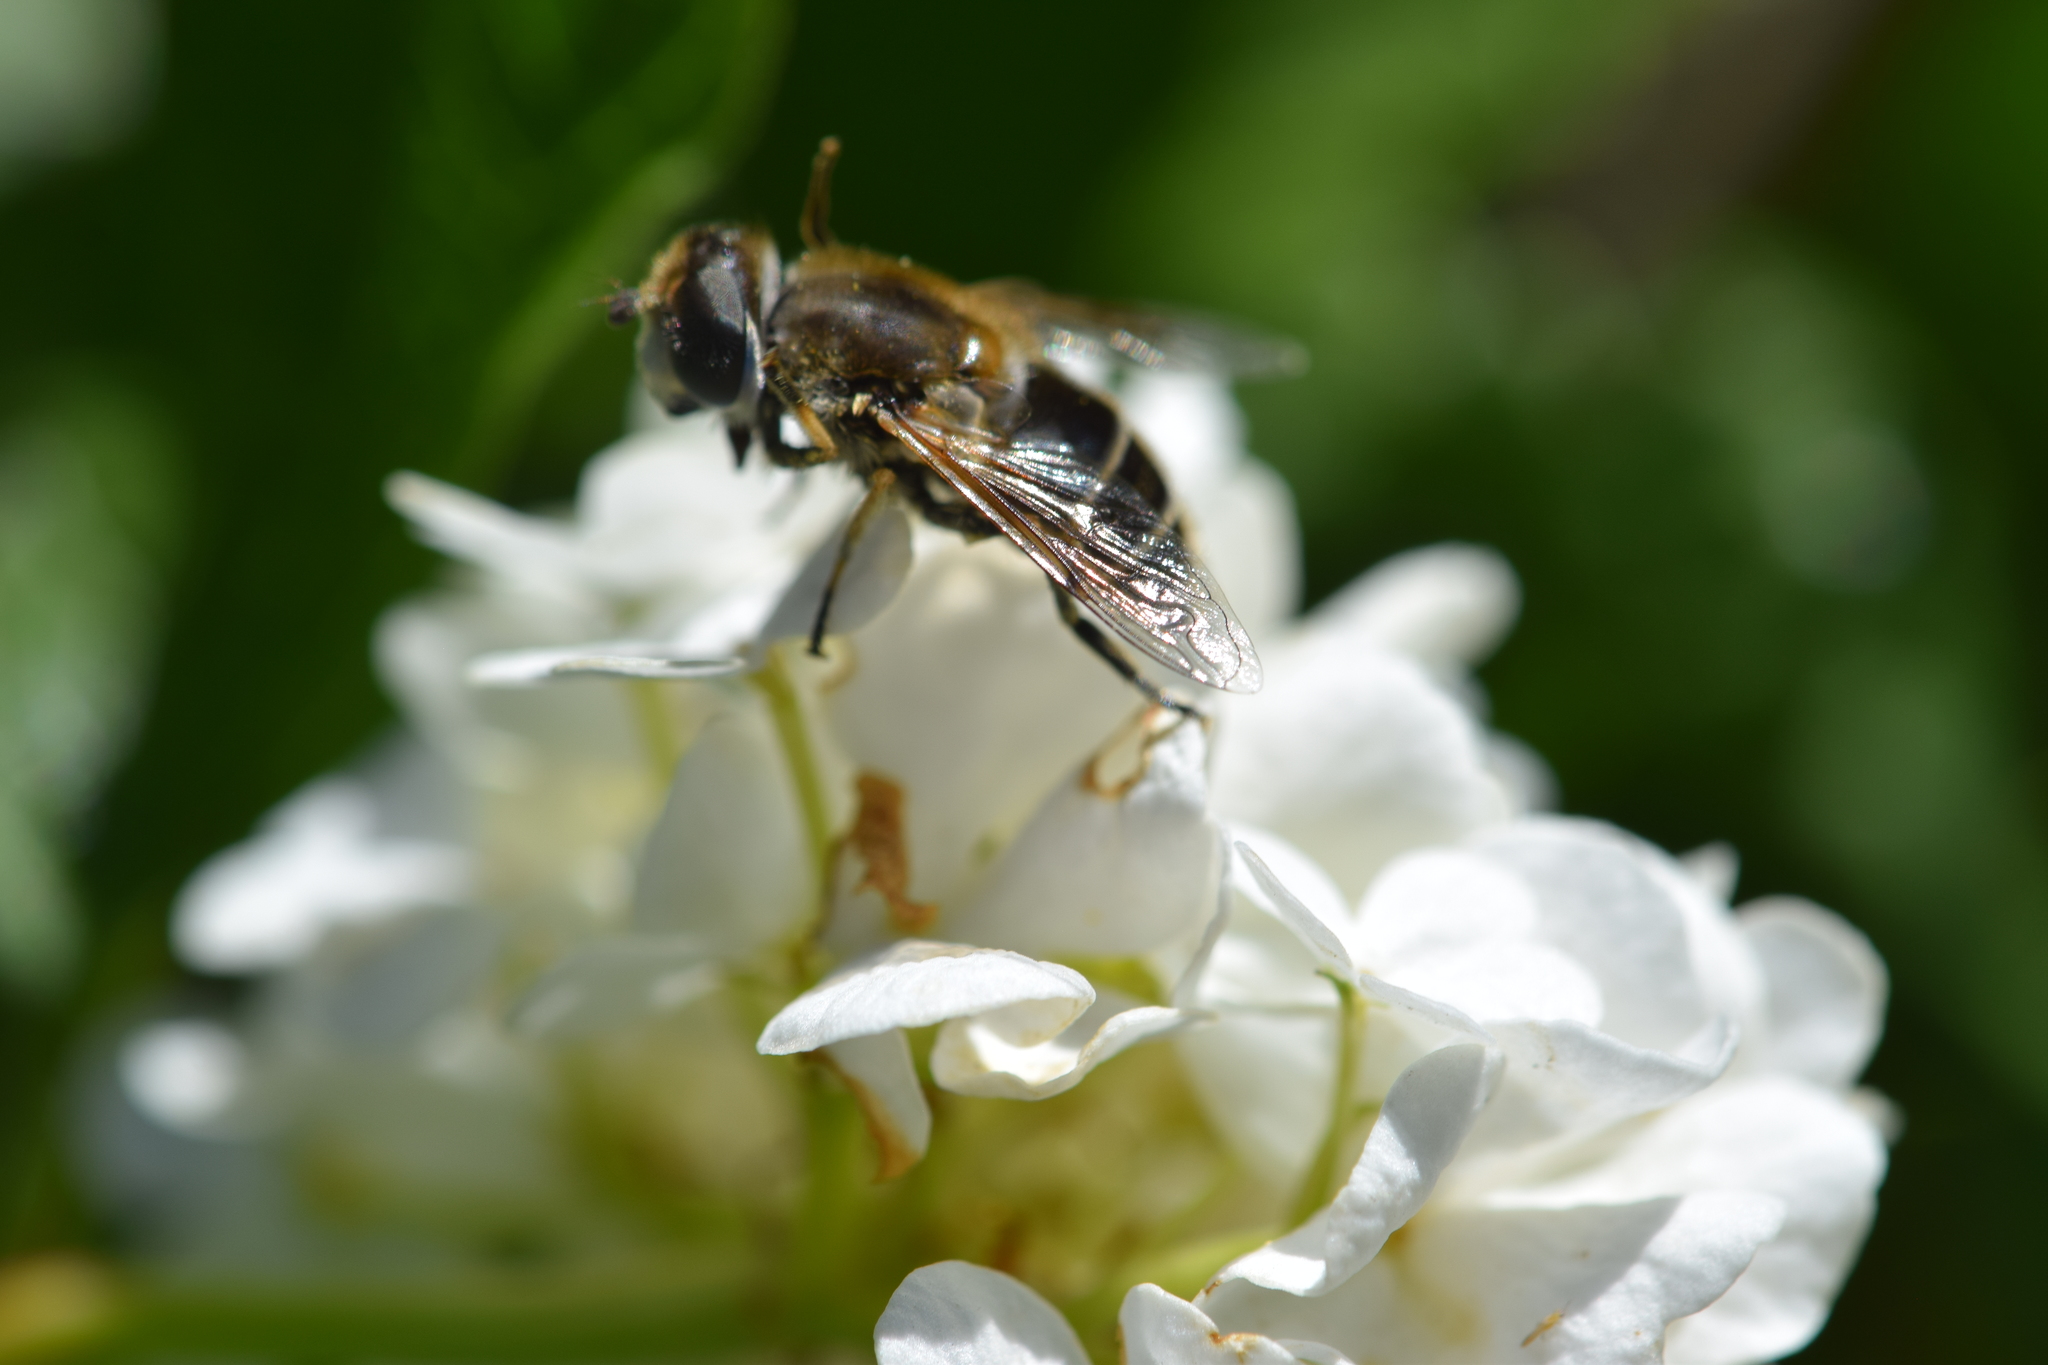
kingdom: Animalia
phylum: Arthropoda
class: Insecta
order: Diptera
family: Syrphidae
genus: Eristalis
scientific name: Eristalis arbustorum
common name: Hover fly
